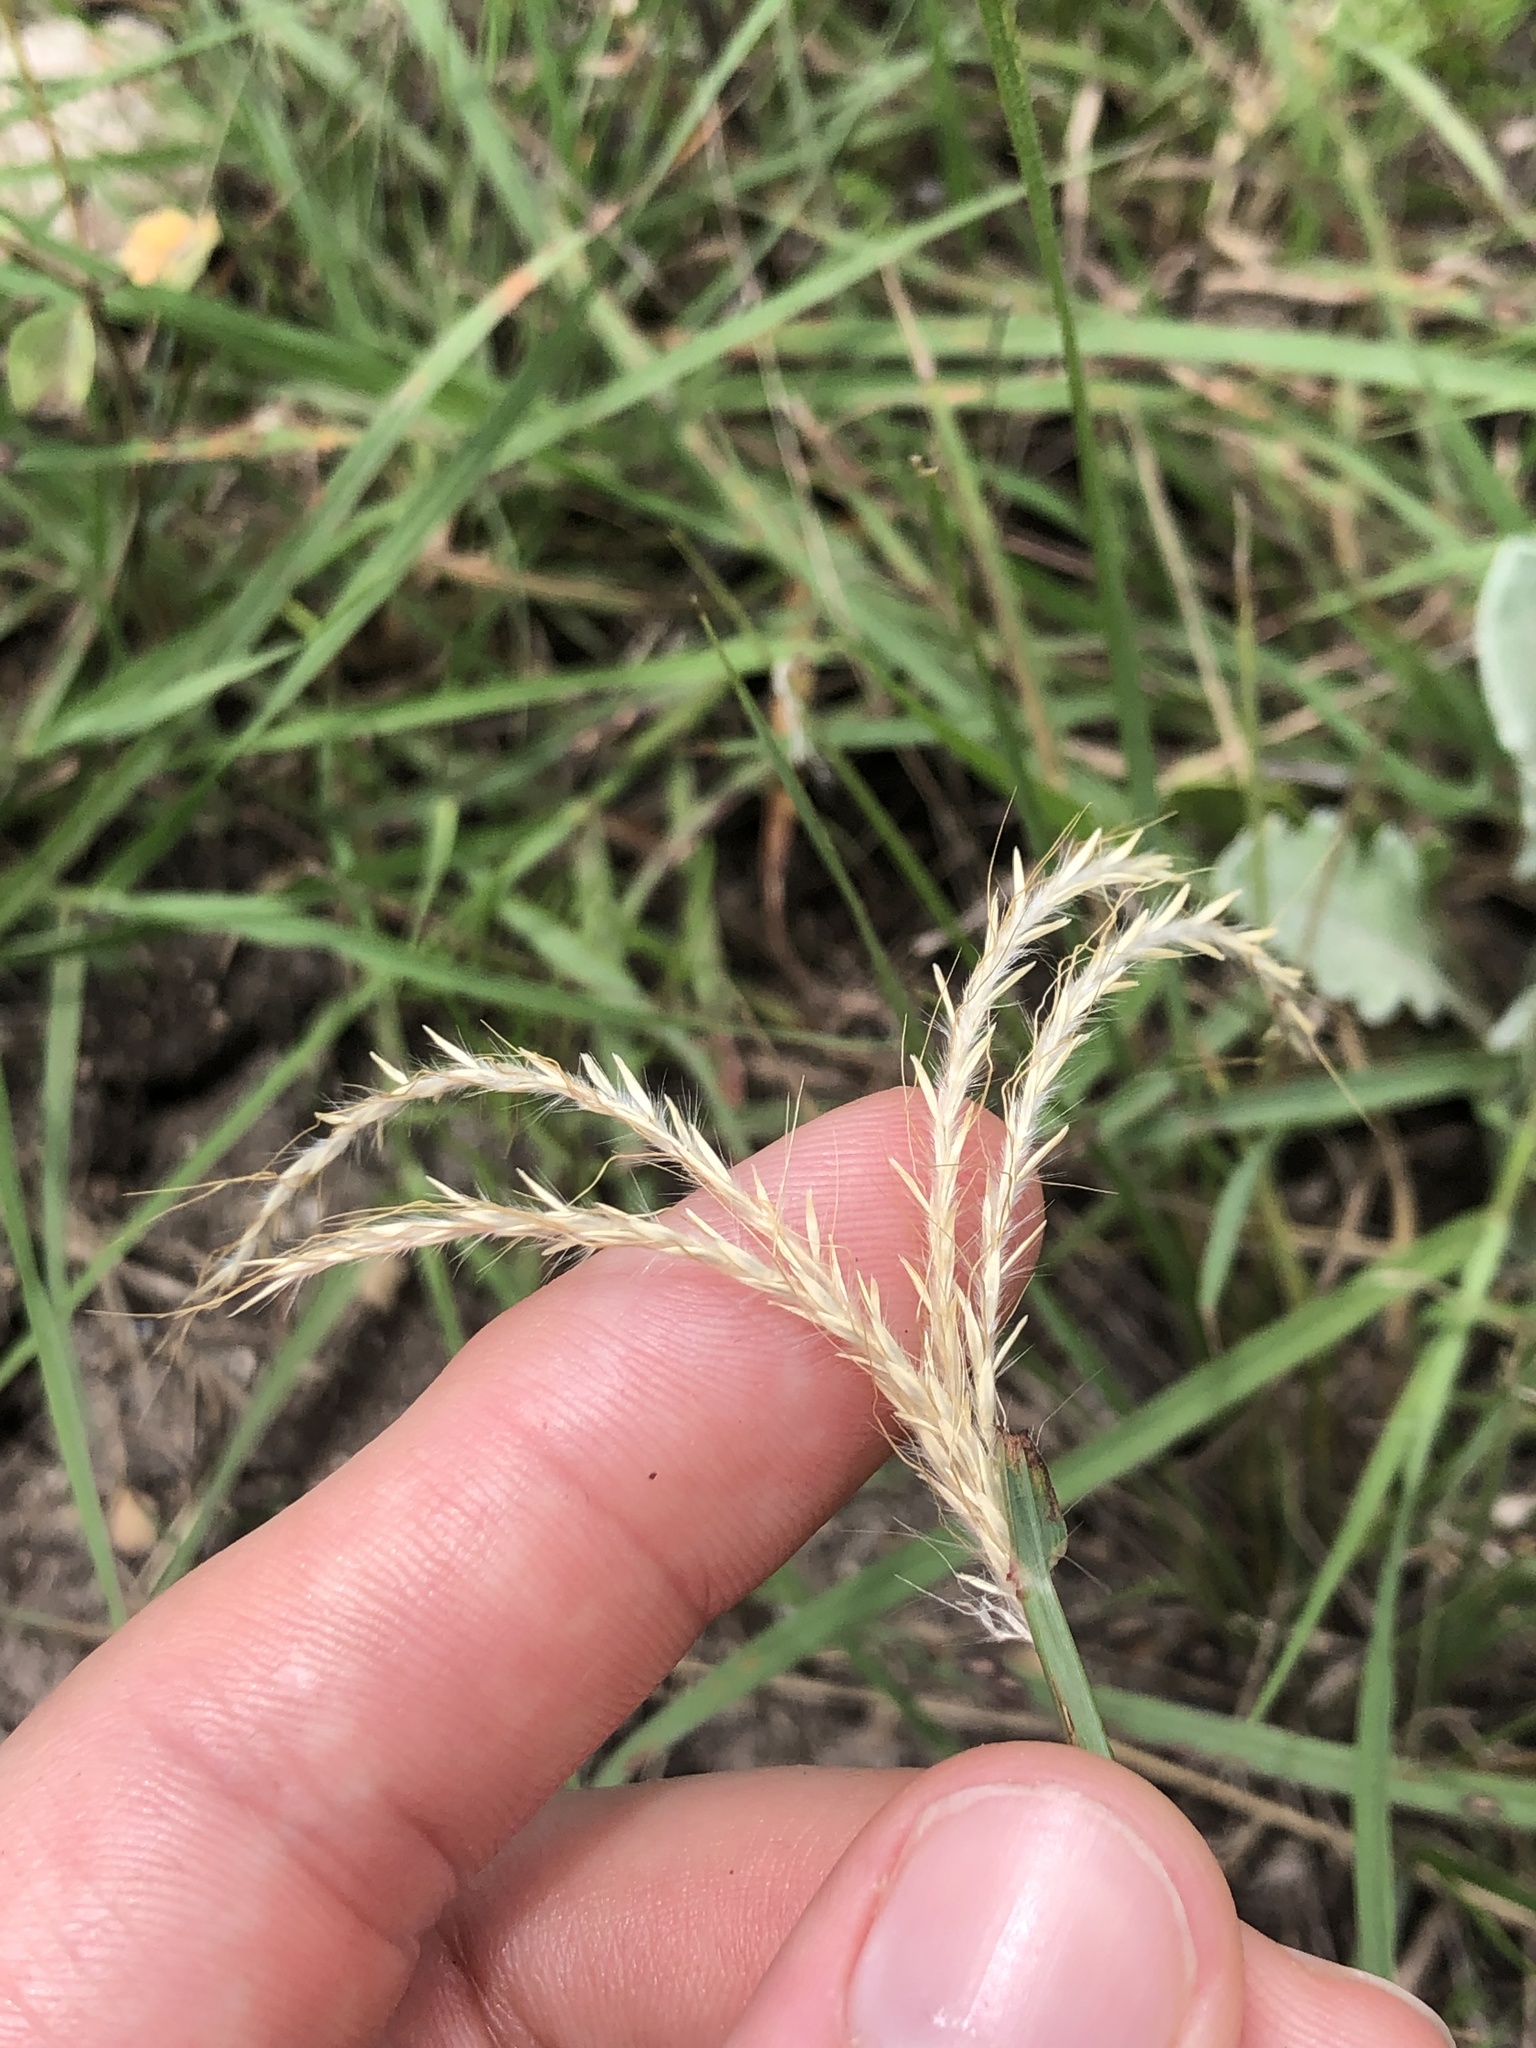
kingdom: Plantae
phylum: Tracheophyta
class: Liliopsida
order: Poales
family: Poaceae
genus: Bothriochloa
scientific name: Bothriochloa ischaemum
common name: Yellow bluestem
